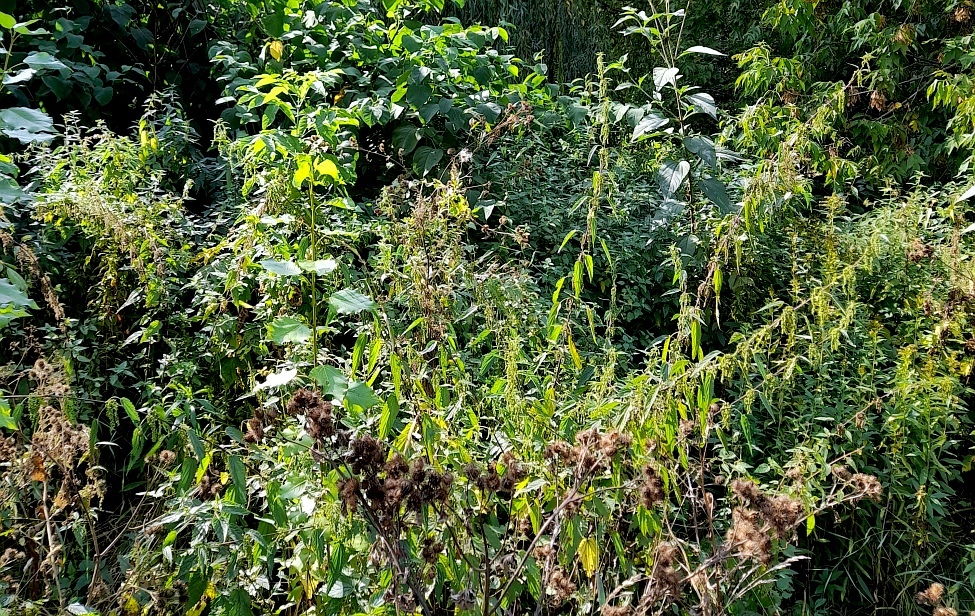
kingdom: Plantae
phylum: Tracheophyta
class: Magnoliopsida
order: Rosales
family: Urticaceae
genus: Urtica
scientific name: Urtica dioica
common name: Common nettle
